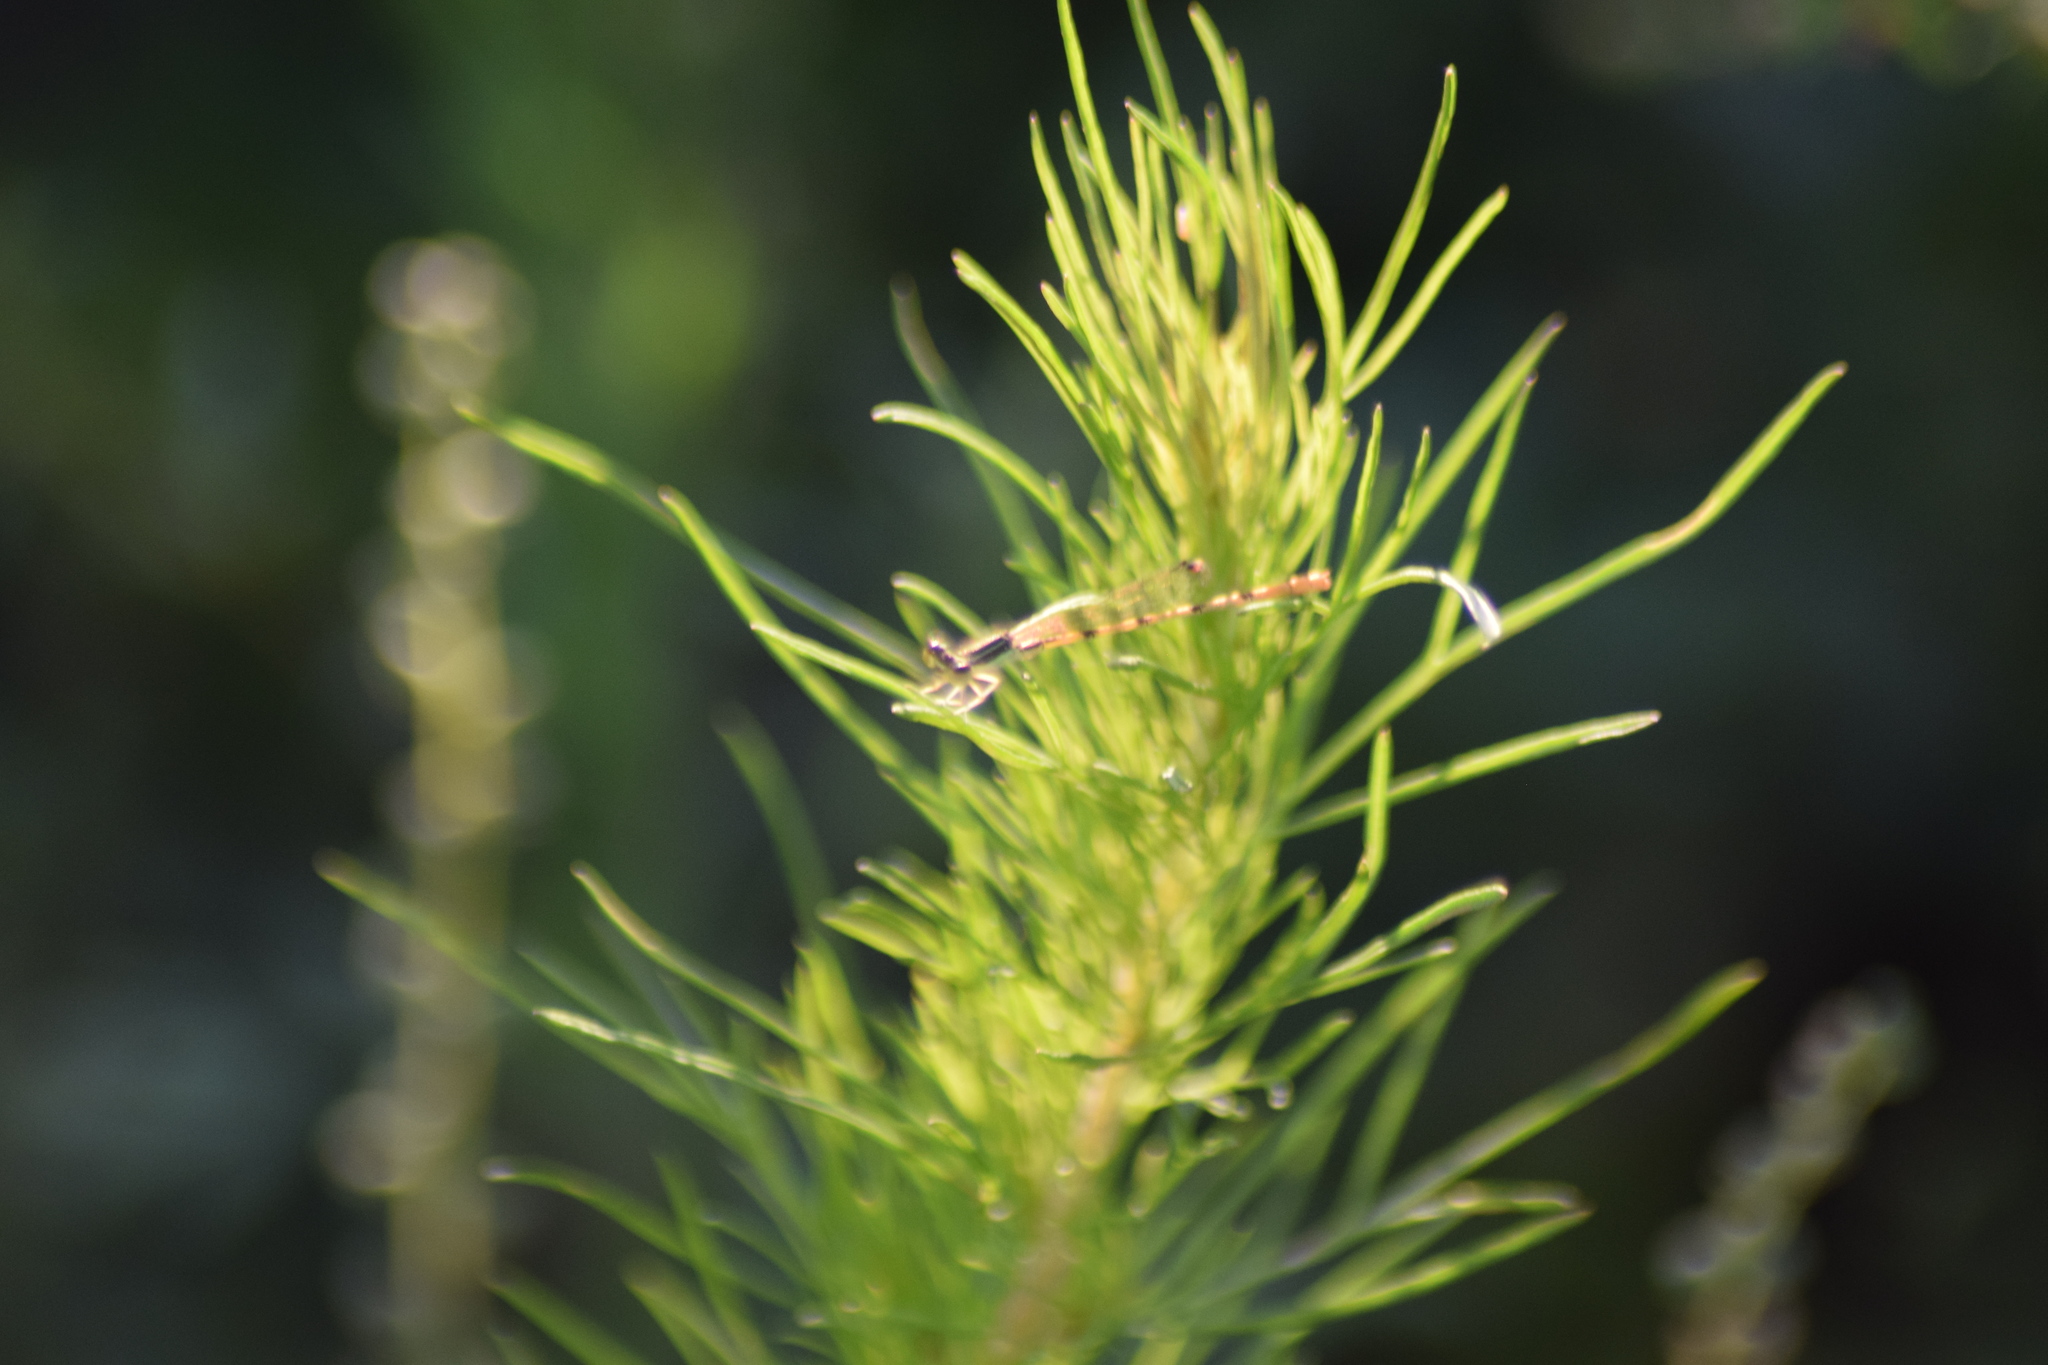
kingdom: Animalia
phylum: Arthropoda
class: Insecta
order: Odonata
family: Coenagrionidae
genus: Ischnura
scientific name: Ischnura hastata
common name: Citrine forktail
